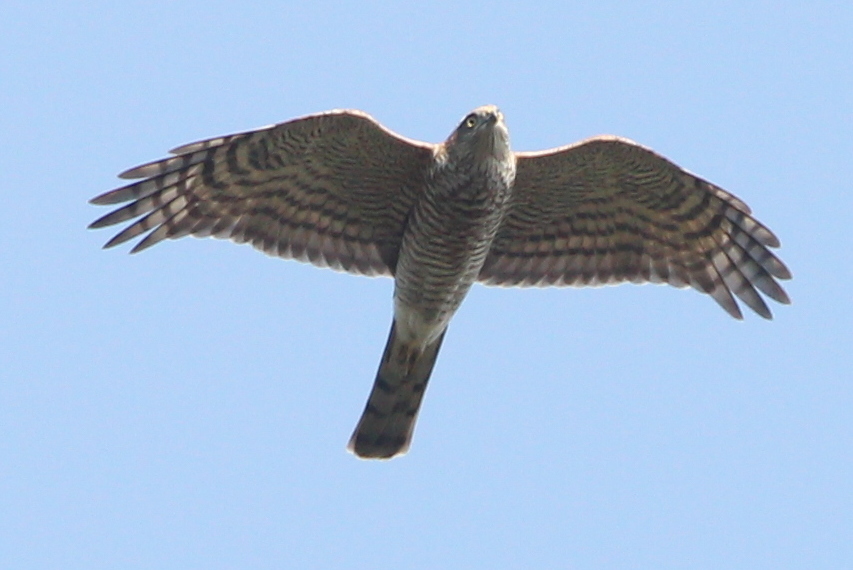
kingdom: Animalia
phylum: Chordata
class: Aves
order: Accipitriformes
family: Accipitridae
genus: Accipiter
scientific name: Accipiter nisus
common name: Eurasian sparrowhawk
